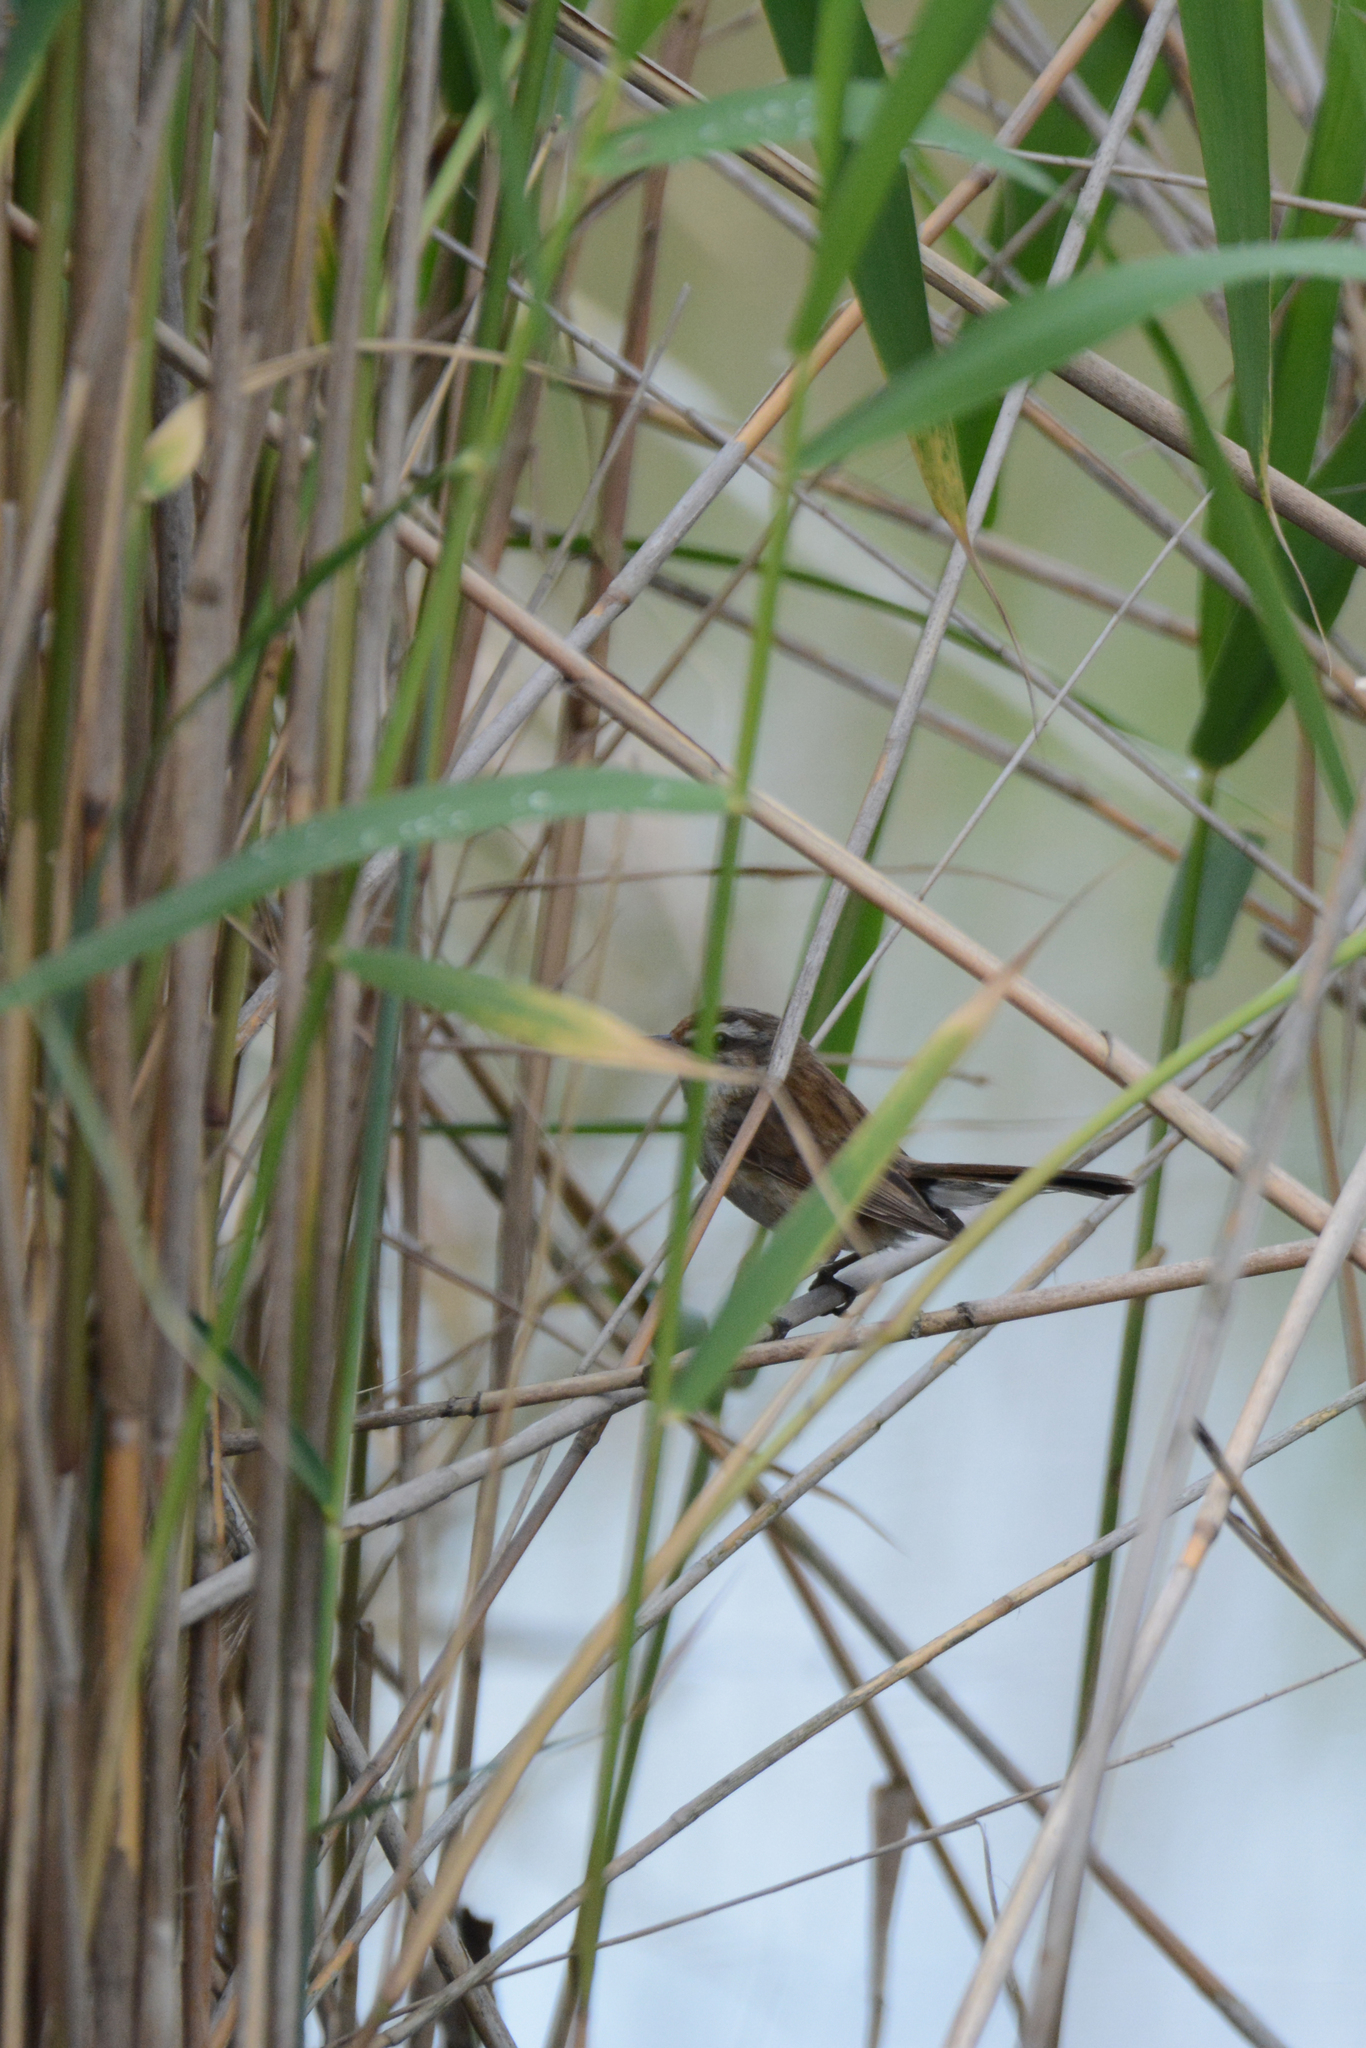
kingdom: Animalia
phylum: Chordata
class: Aves
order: Passeriformes
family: Acrocephalidae
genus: Acrocephalus
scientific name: Acrocephalus melanopogon
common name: Moustached warbler
